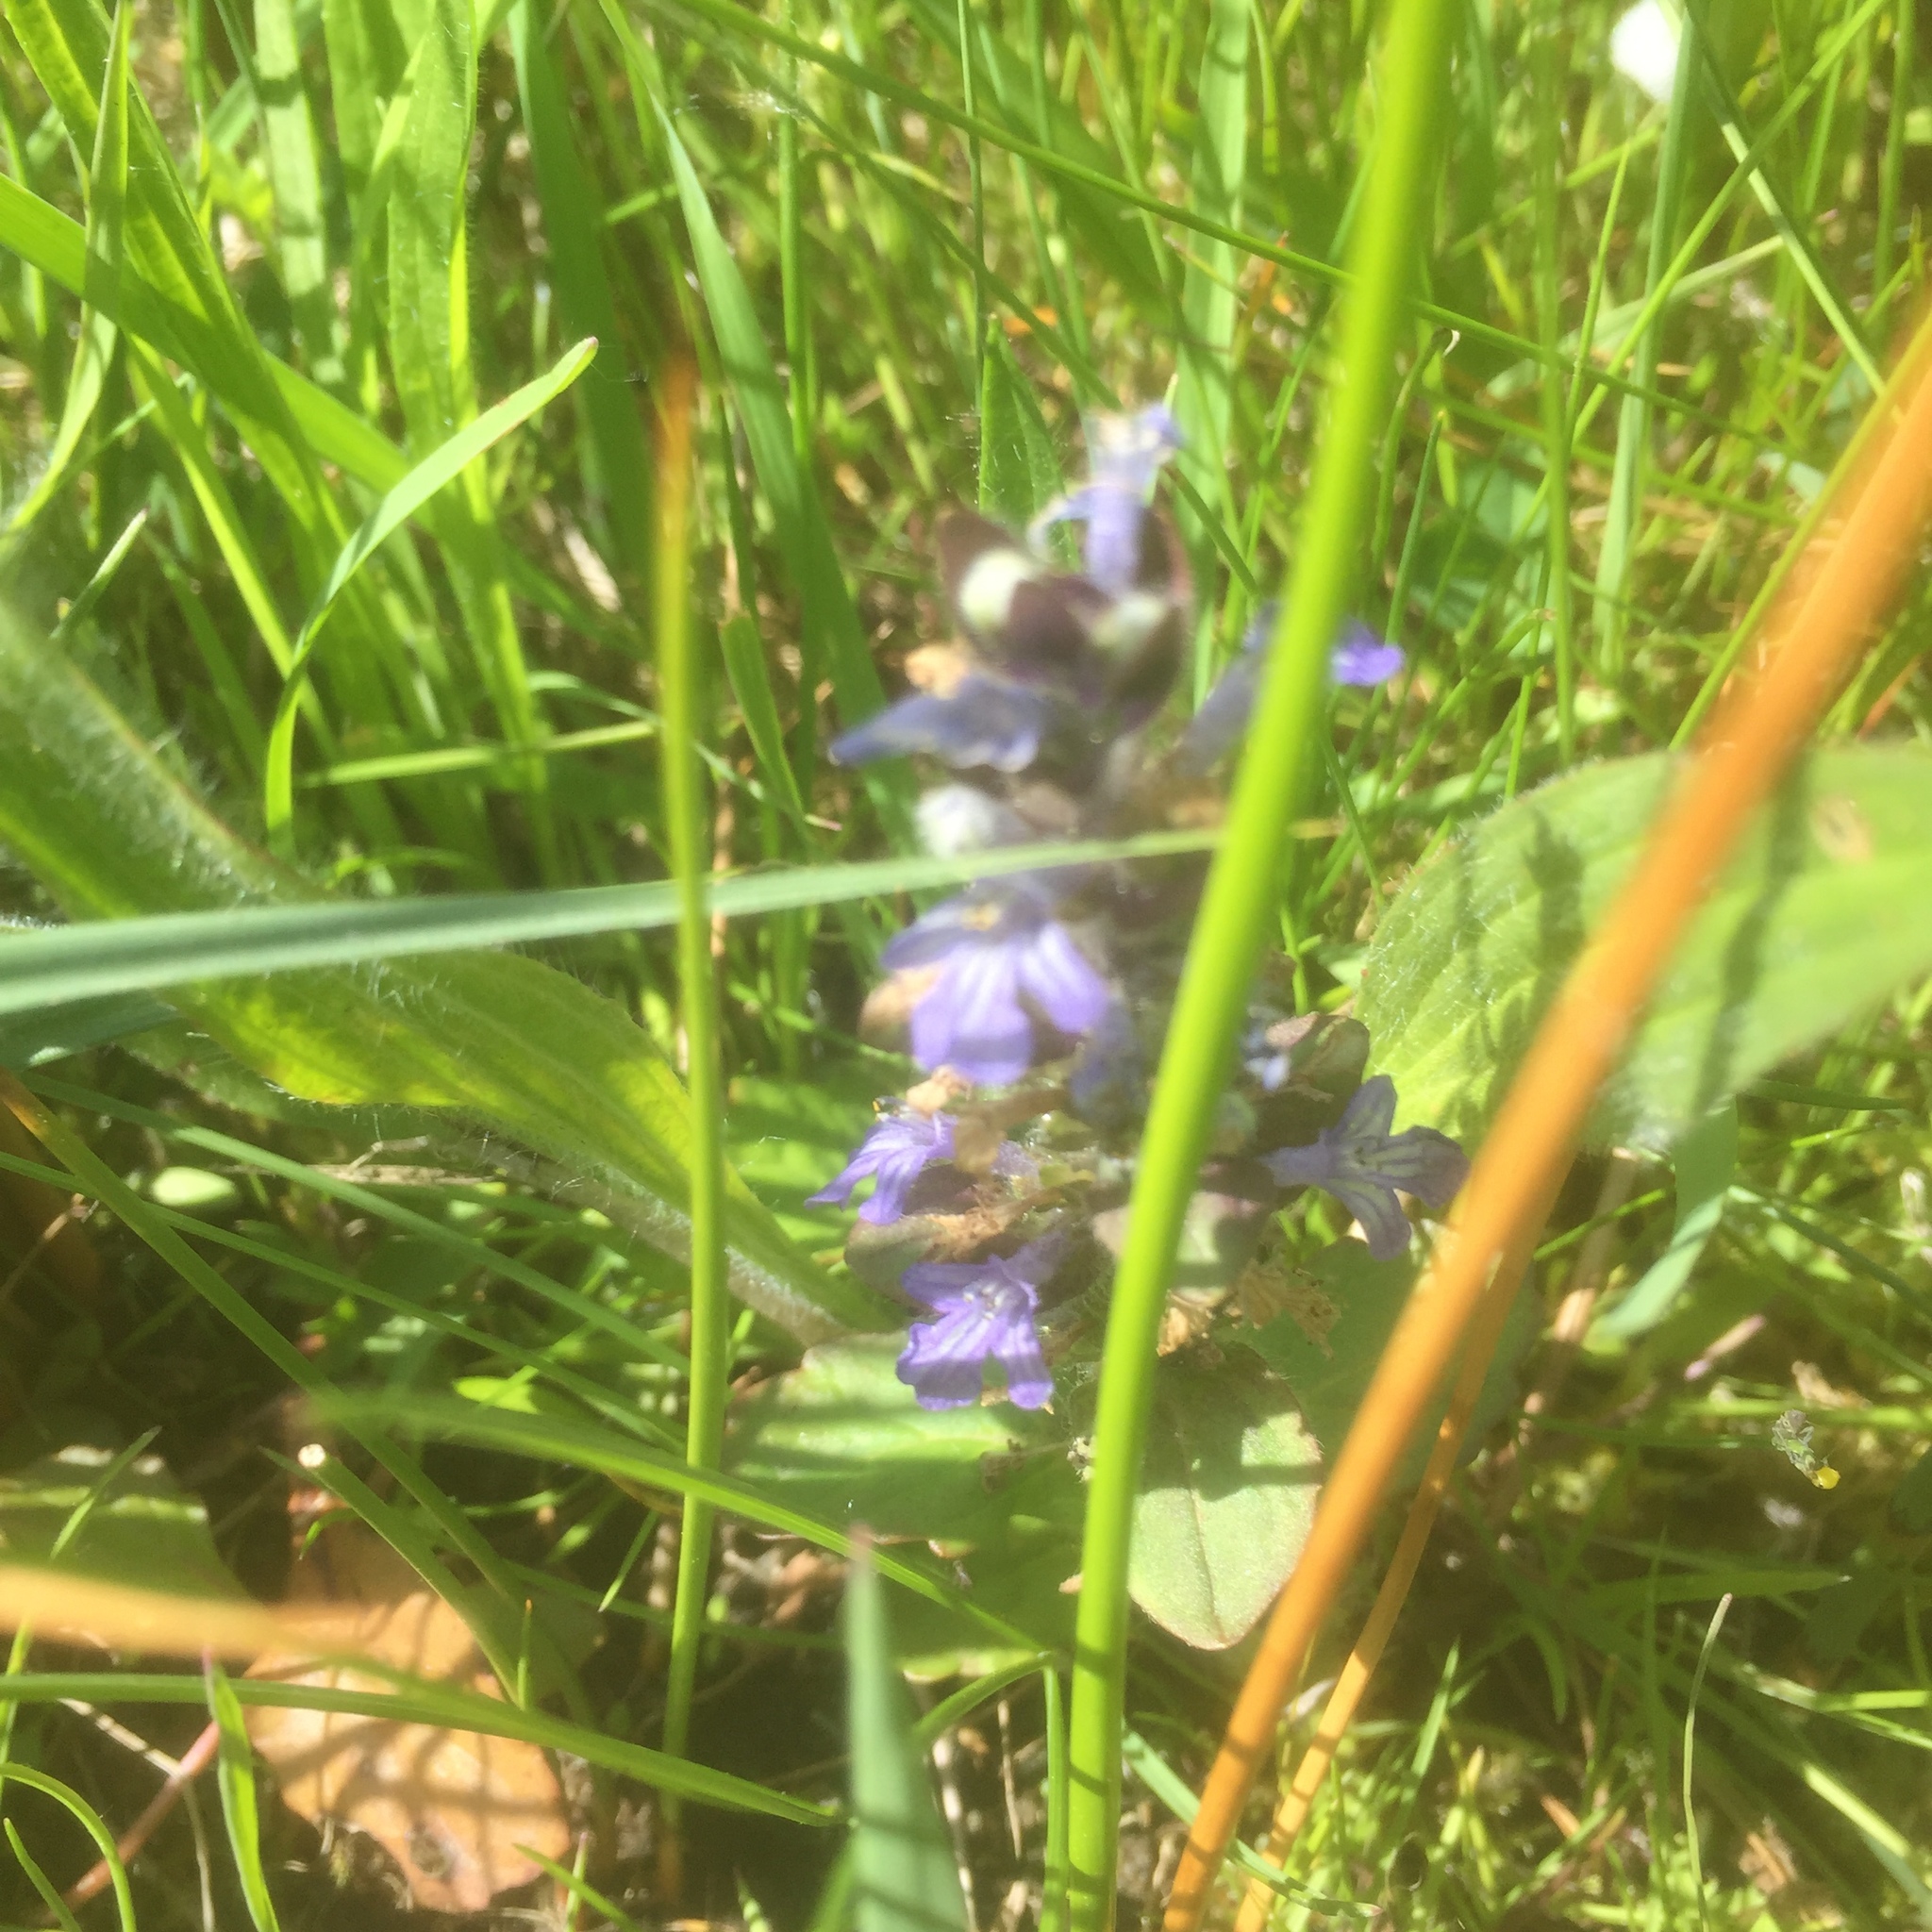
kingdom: Plantae
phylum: Tracheophyta
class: Magnoliopsida
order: Lamiales
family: Lamiaceae
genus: Ajuga
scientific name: Ajuga reptans
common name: Bugle
